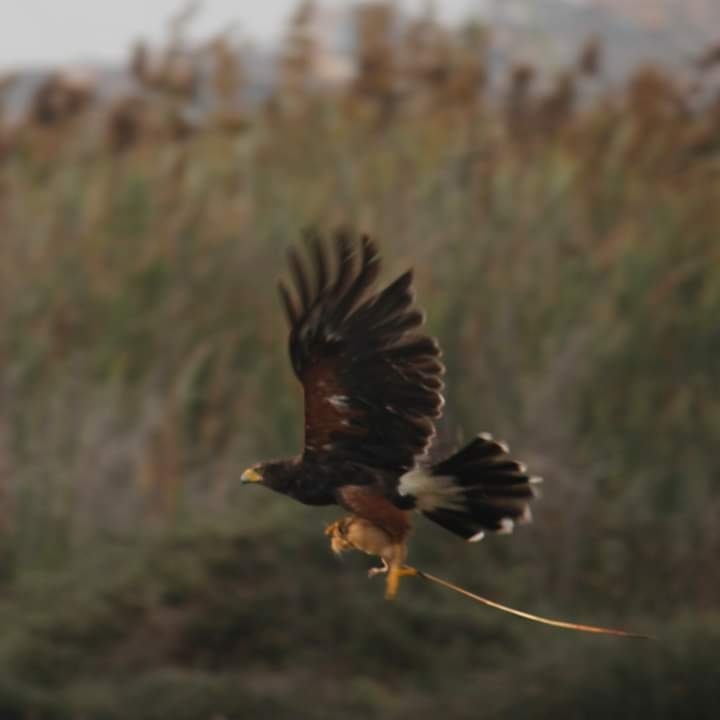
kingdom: Animalia
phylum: Chordata
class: Aves
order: Accipitriformes
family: Accipitridae
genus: Parabuteo
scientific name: Parabuteo unicinctus
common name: Harris's hawk
